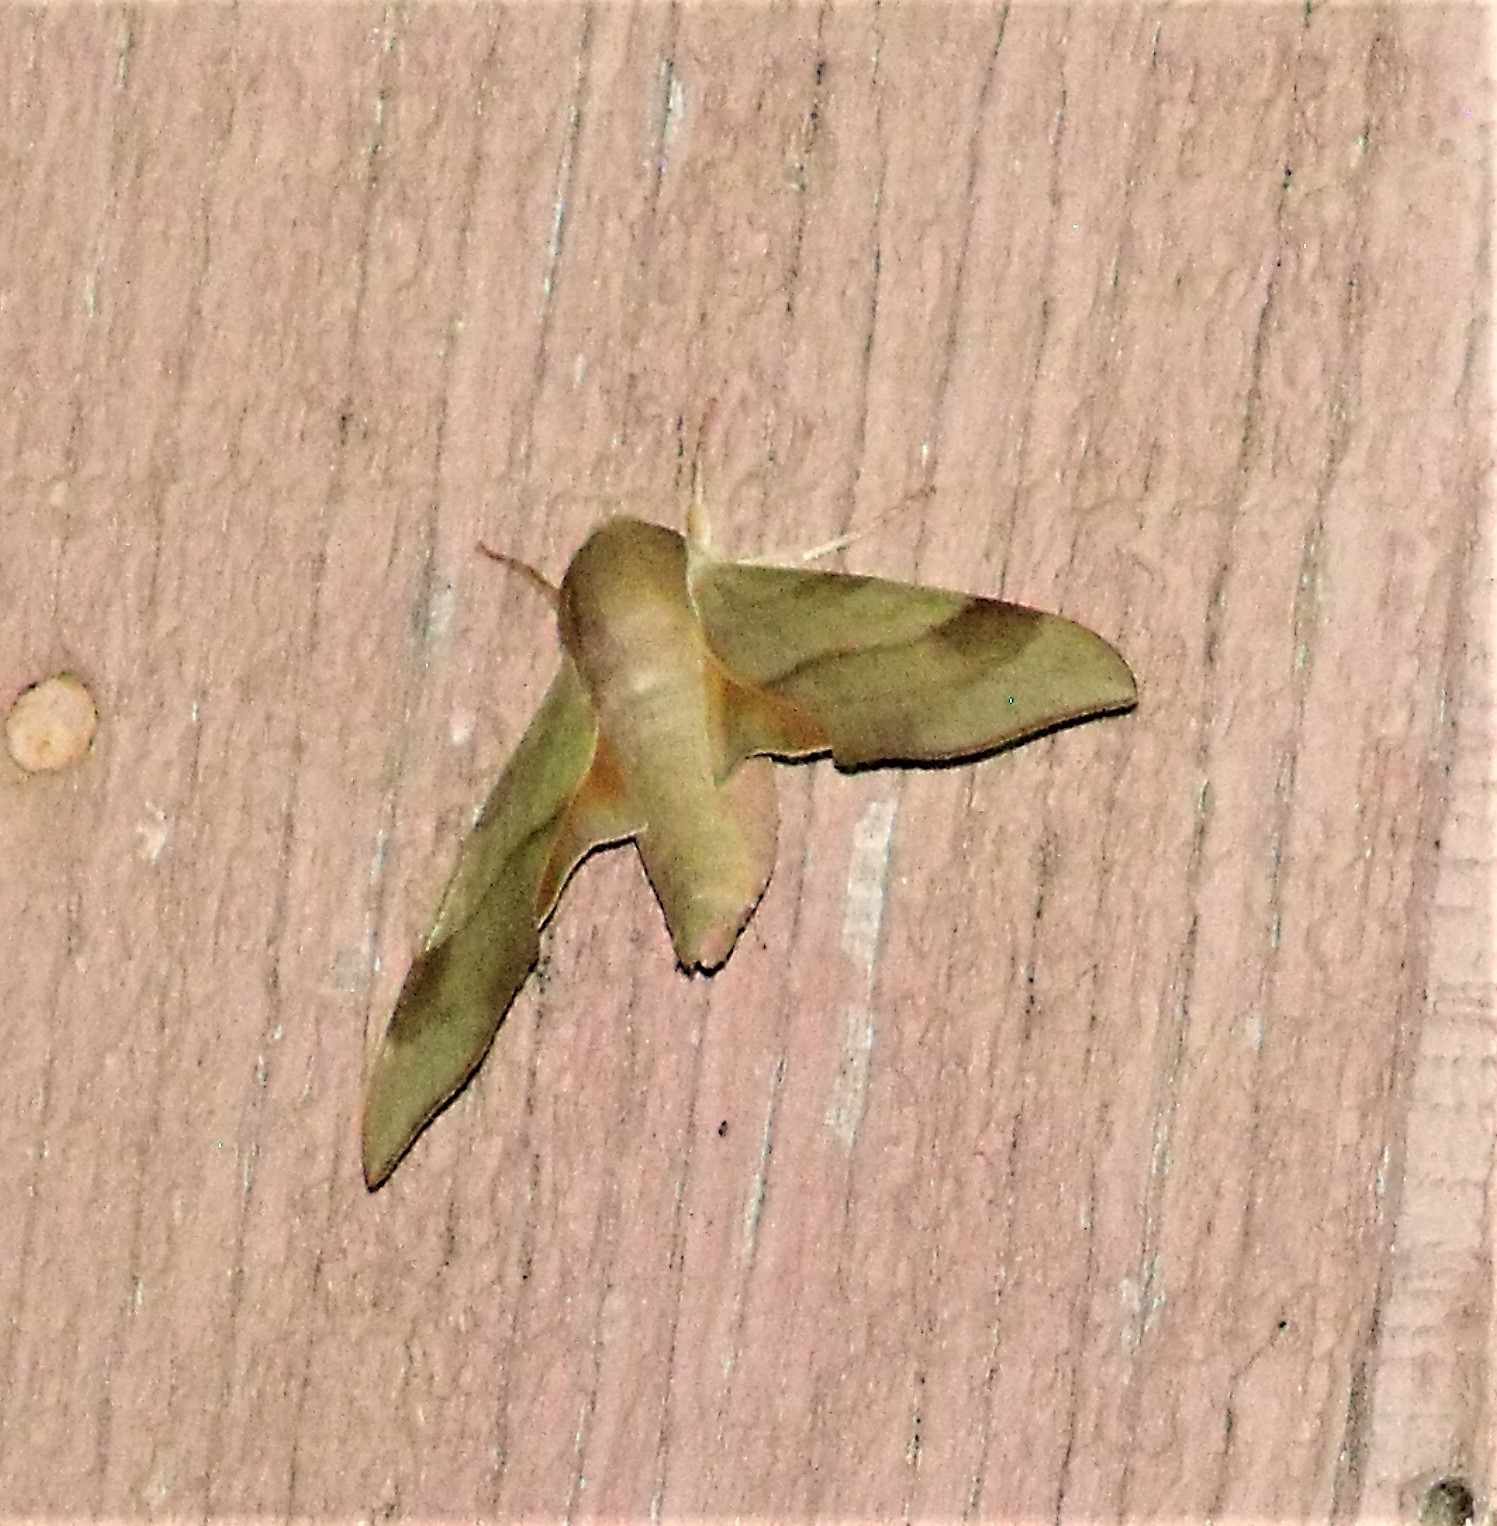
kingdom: Animalia
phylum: Arthropoda
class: Insecta
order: Lepidoptera
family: Sphingidae
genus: Darapsa
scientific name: Darapsa myron
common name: Hog sphinx
